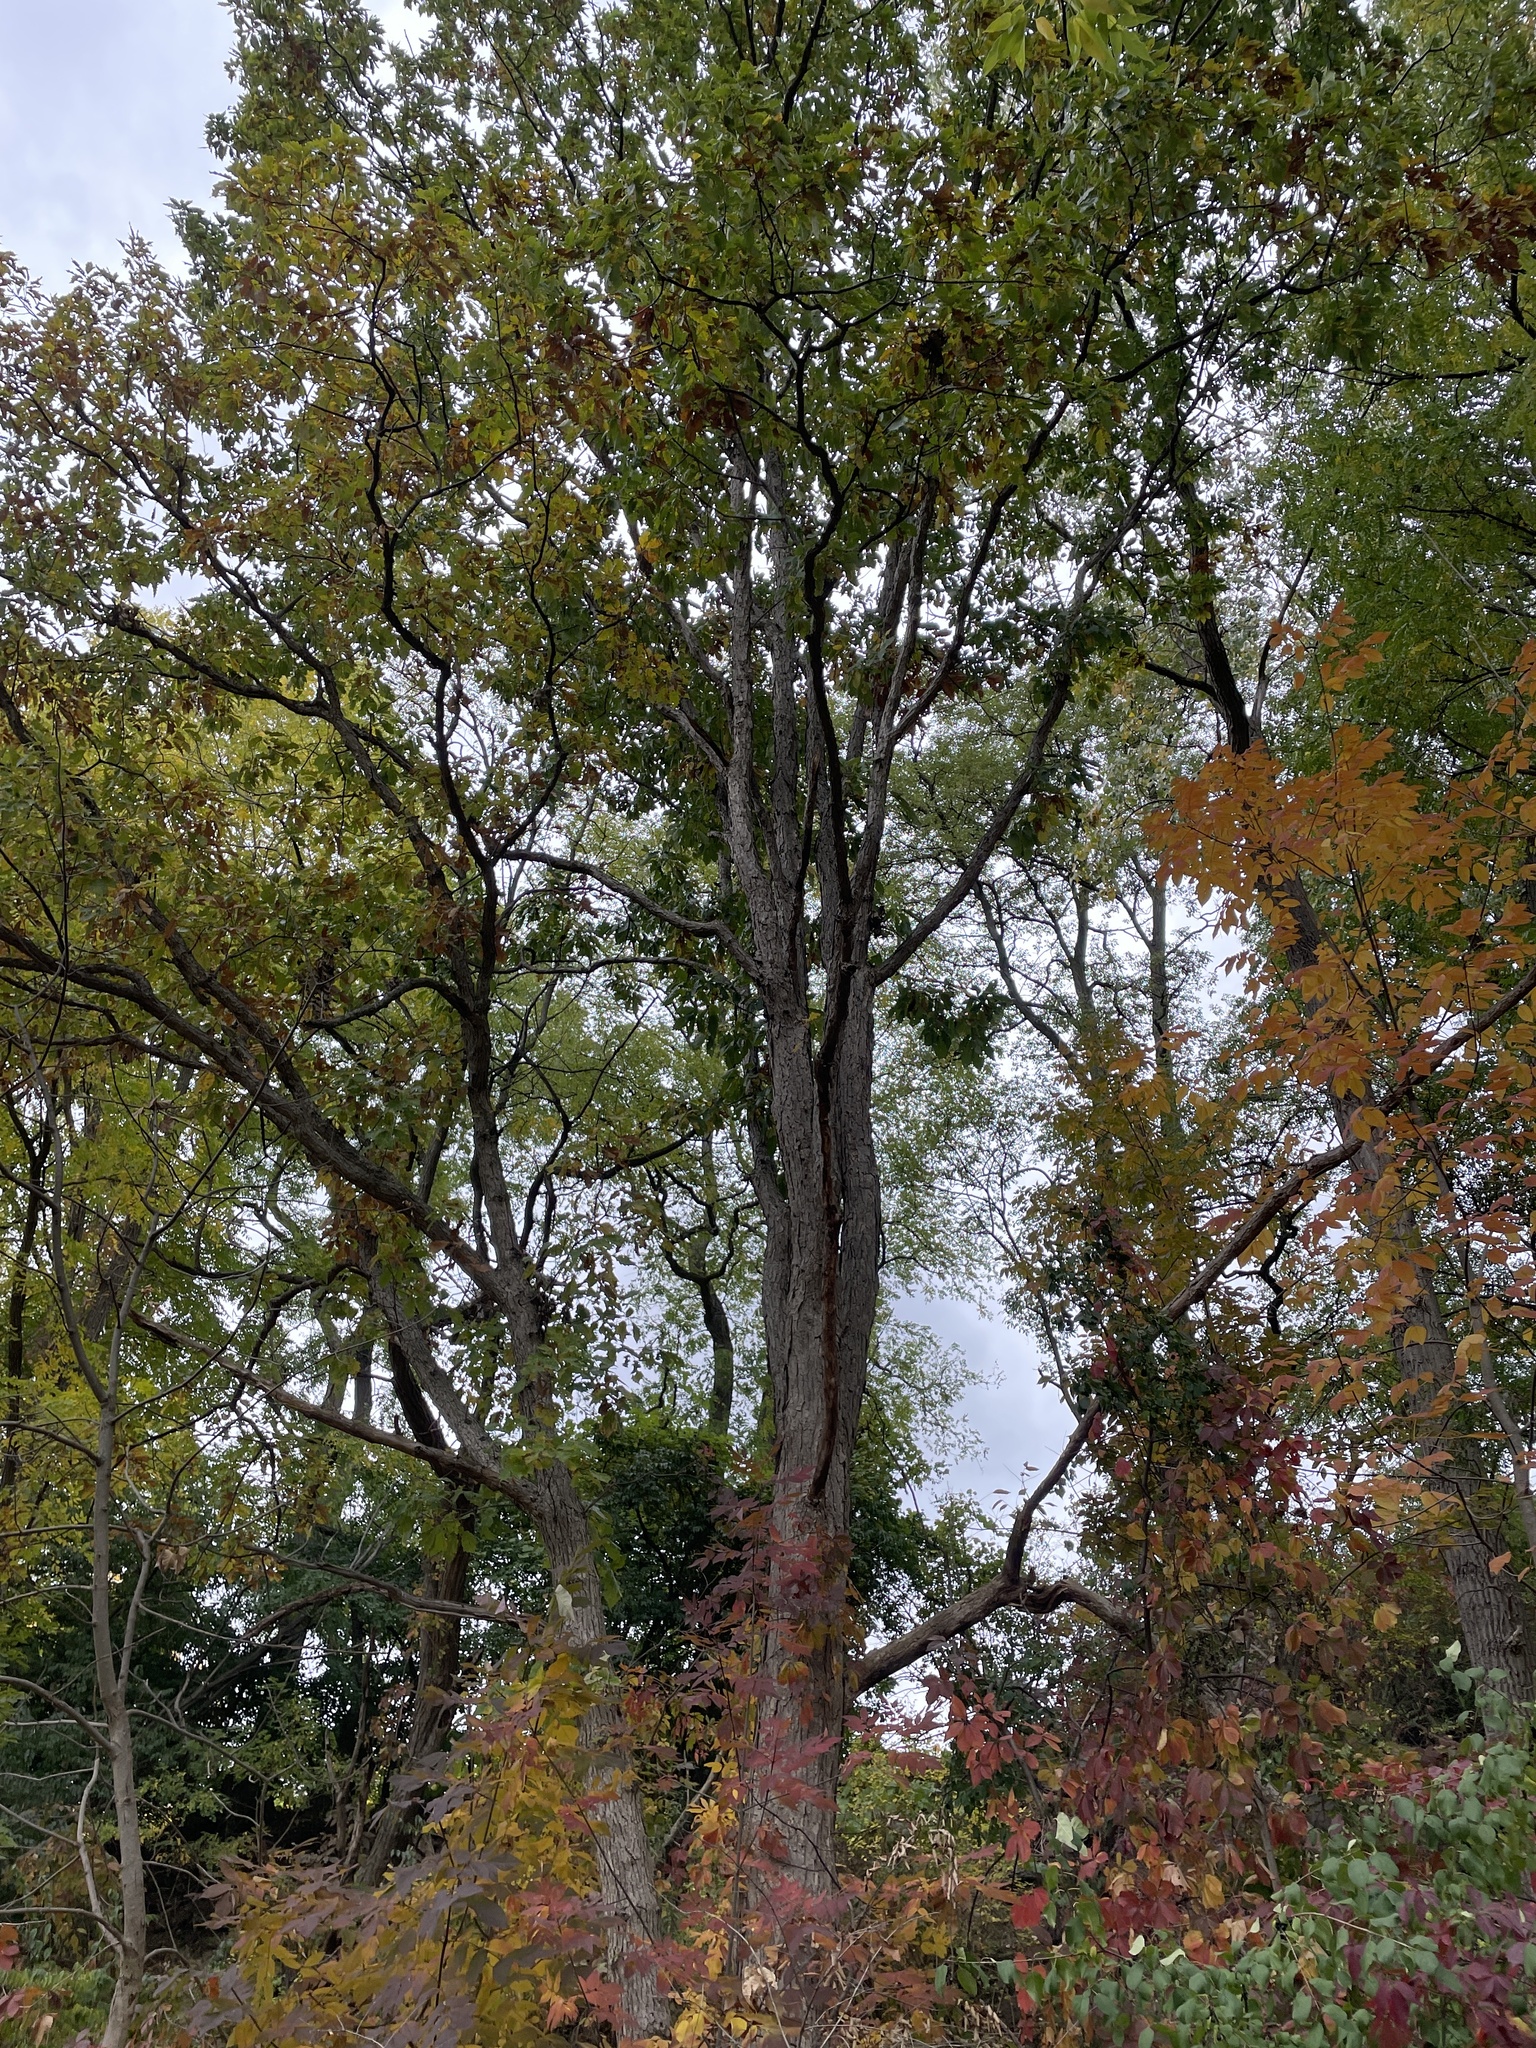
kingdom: Plantae
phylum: Tracheophyta
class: Magnoliopsida
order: Fagales
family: Fagaceae
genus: Quercus
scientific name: Quercus muehlenbergii
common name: Chinkapin oak
